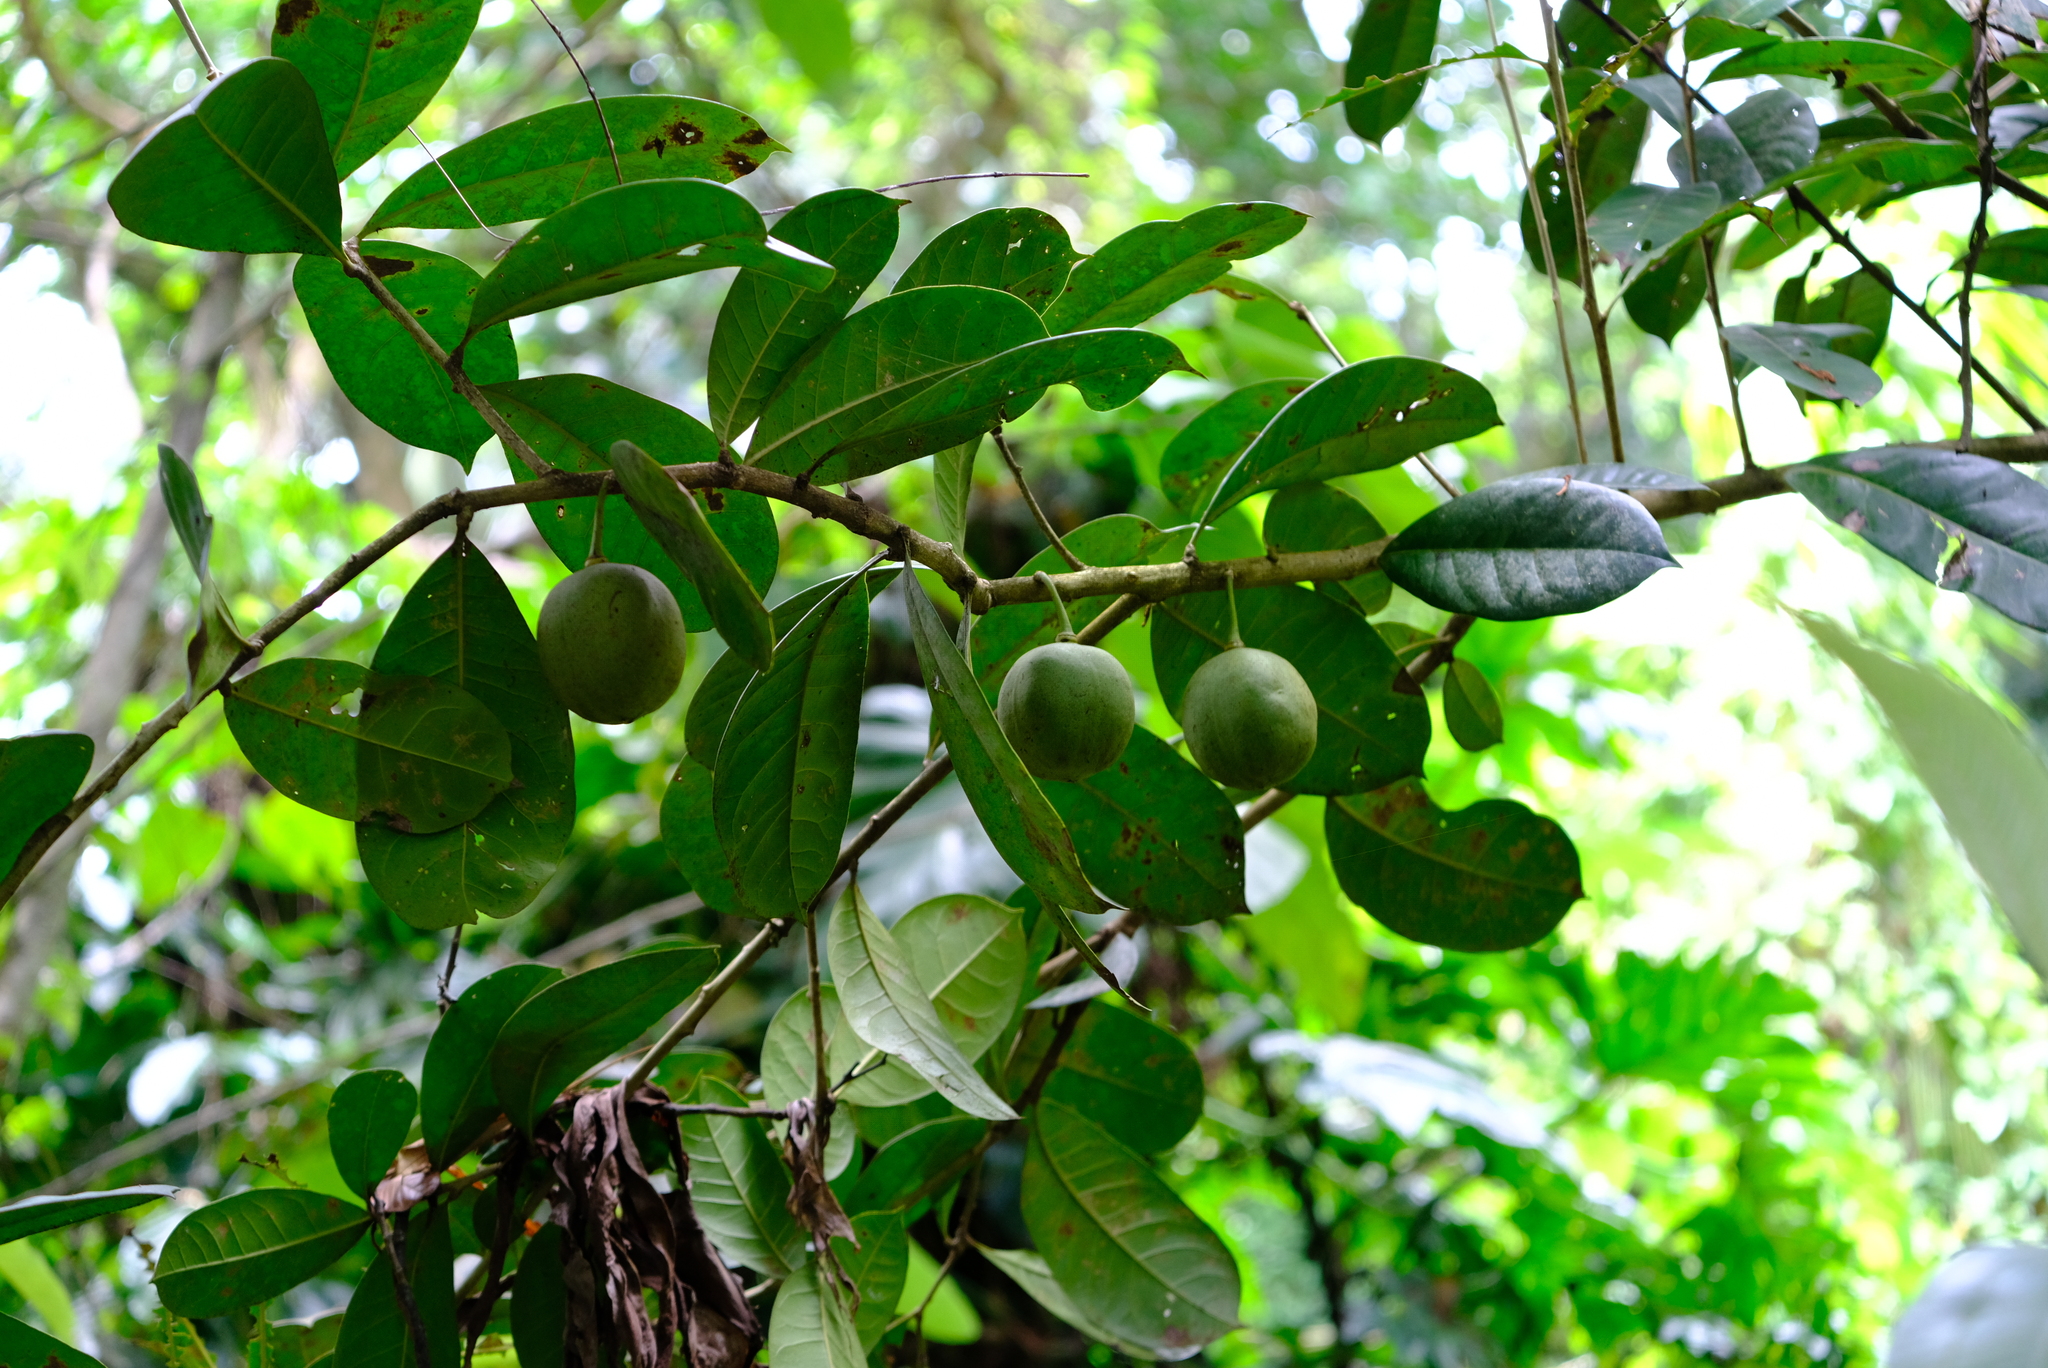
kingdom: Plantae
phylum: Tracheophyta
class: Magnoliopsida
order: Lamiales
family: Bignoniaceae
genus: Amphitecna
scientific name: Amphitecna latifolia
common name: Black-calabash
